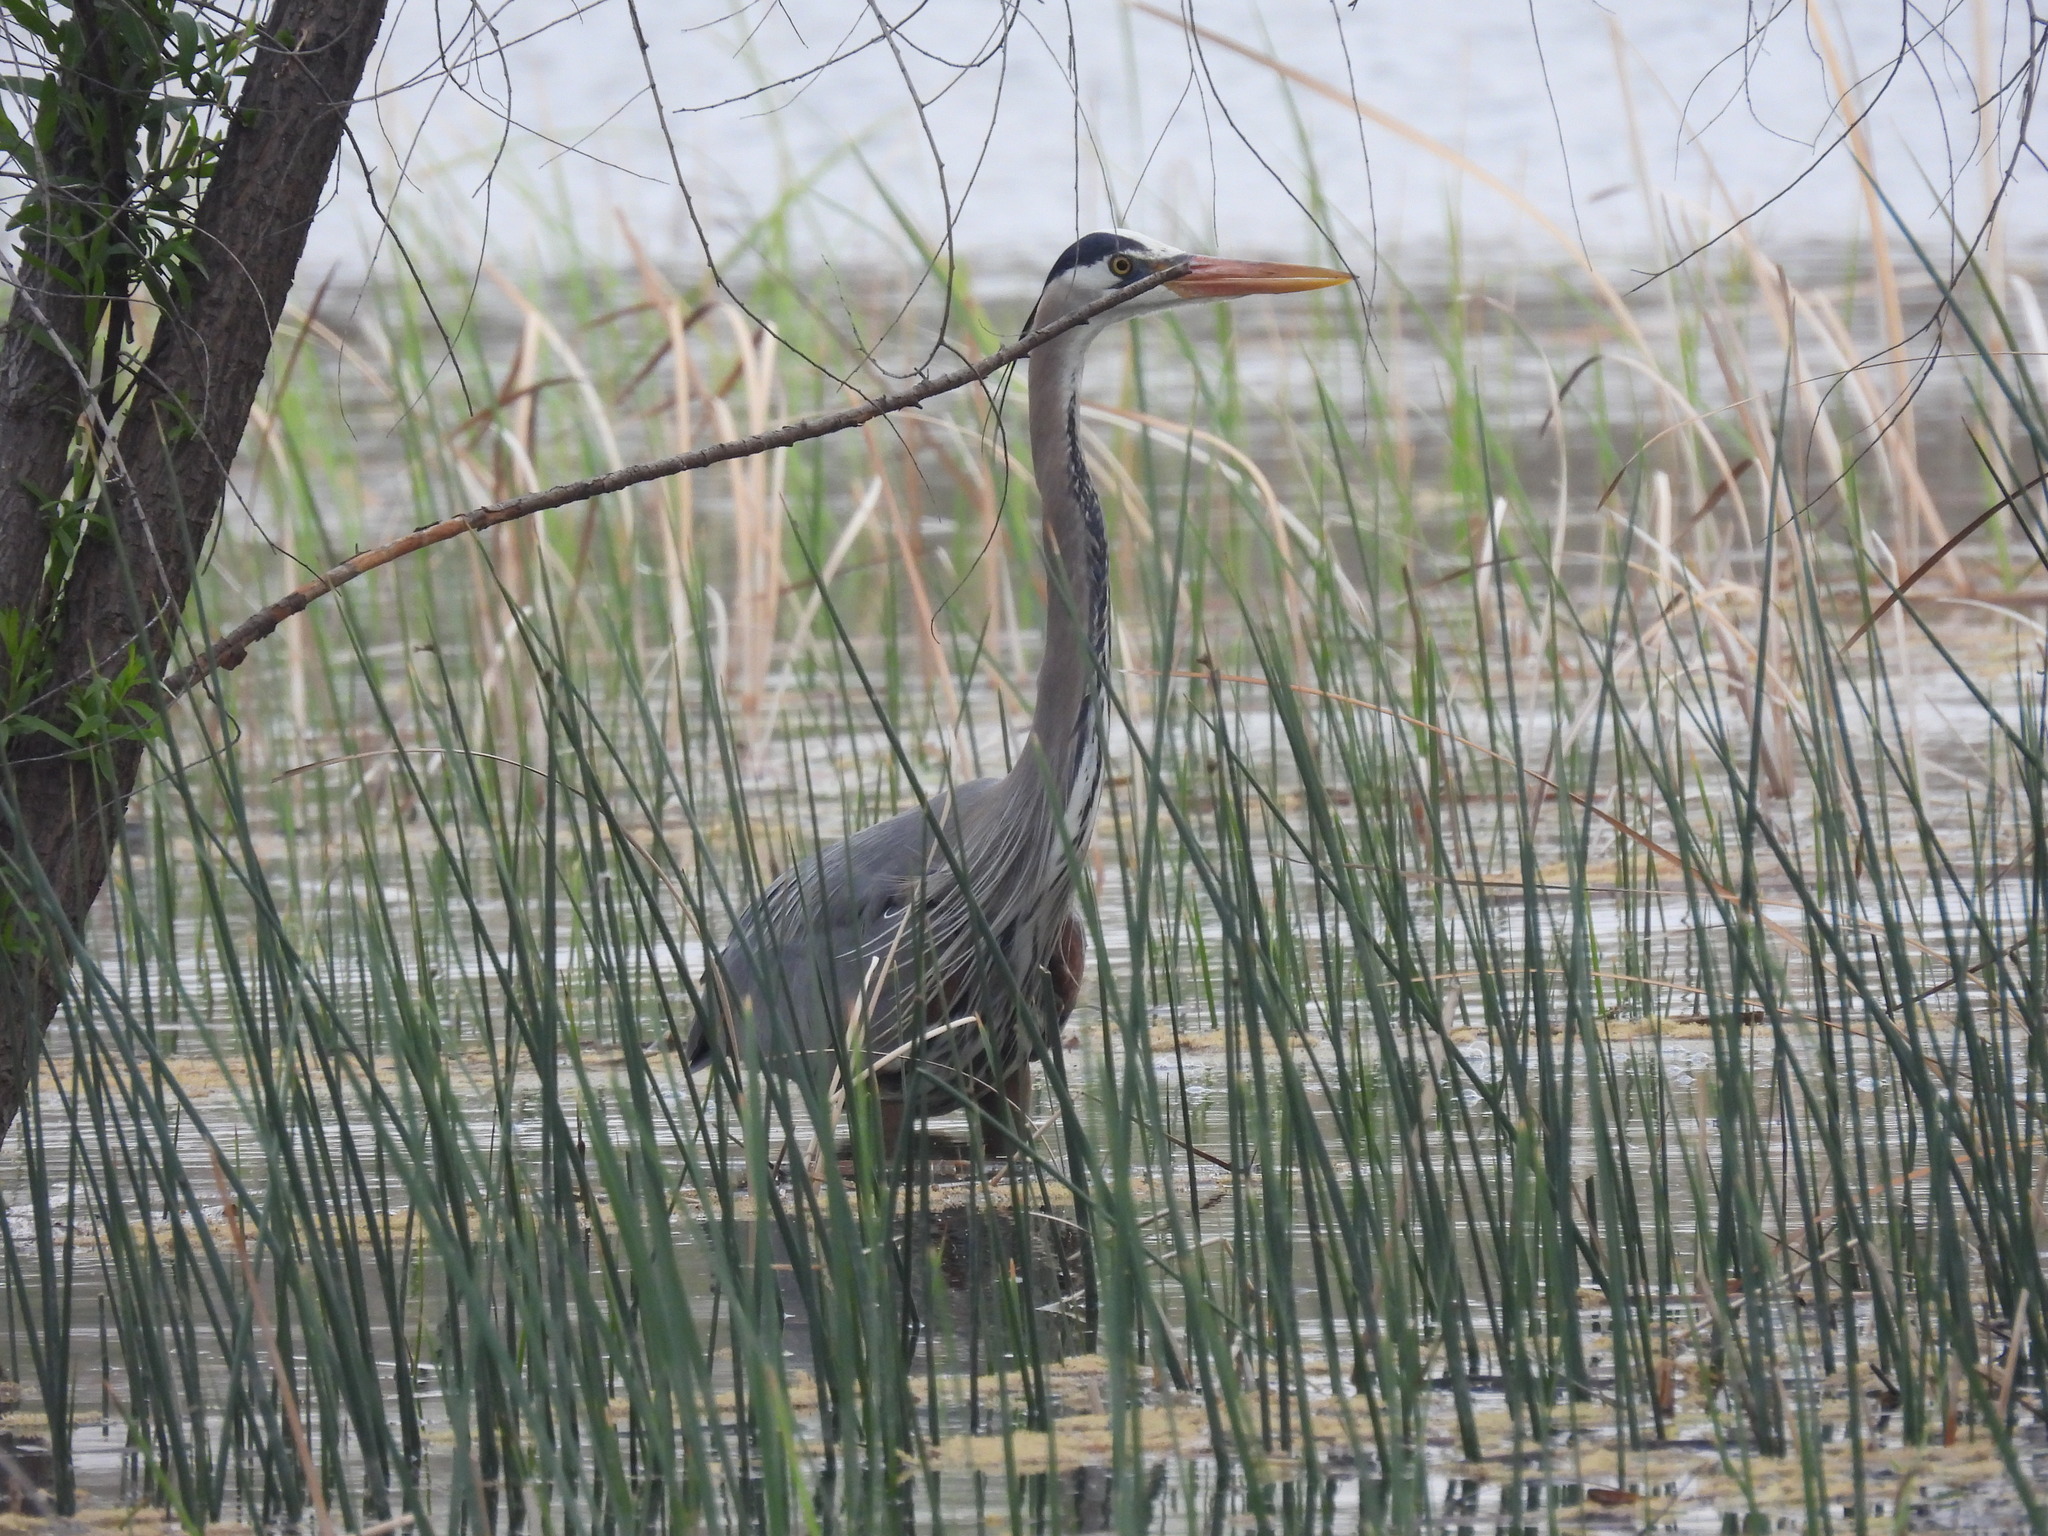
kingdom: Animalia
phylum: Chordata
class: Aves
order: Pelecaniformes
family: Ardeidae
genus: Ardea
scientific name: Ardea herodias
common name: Great blue heron
